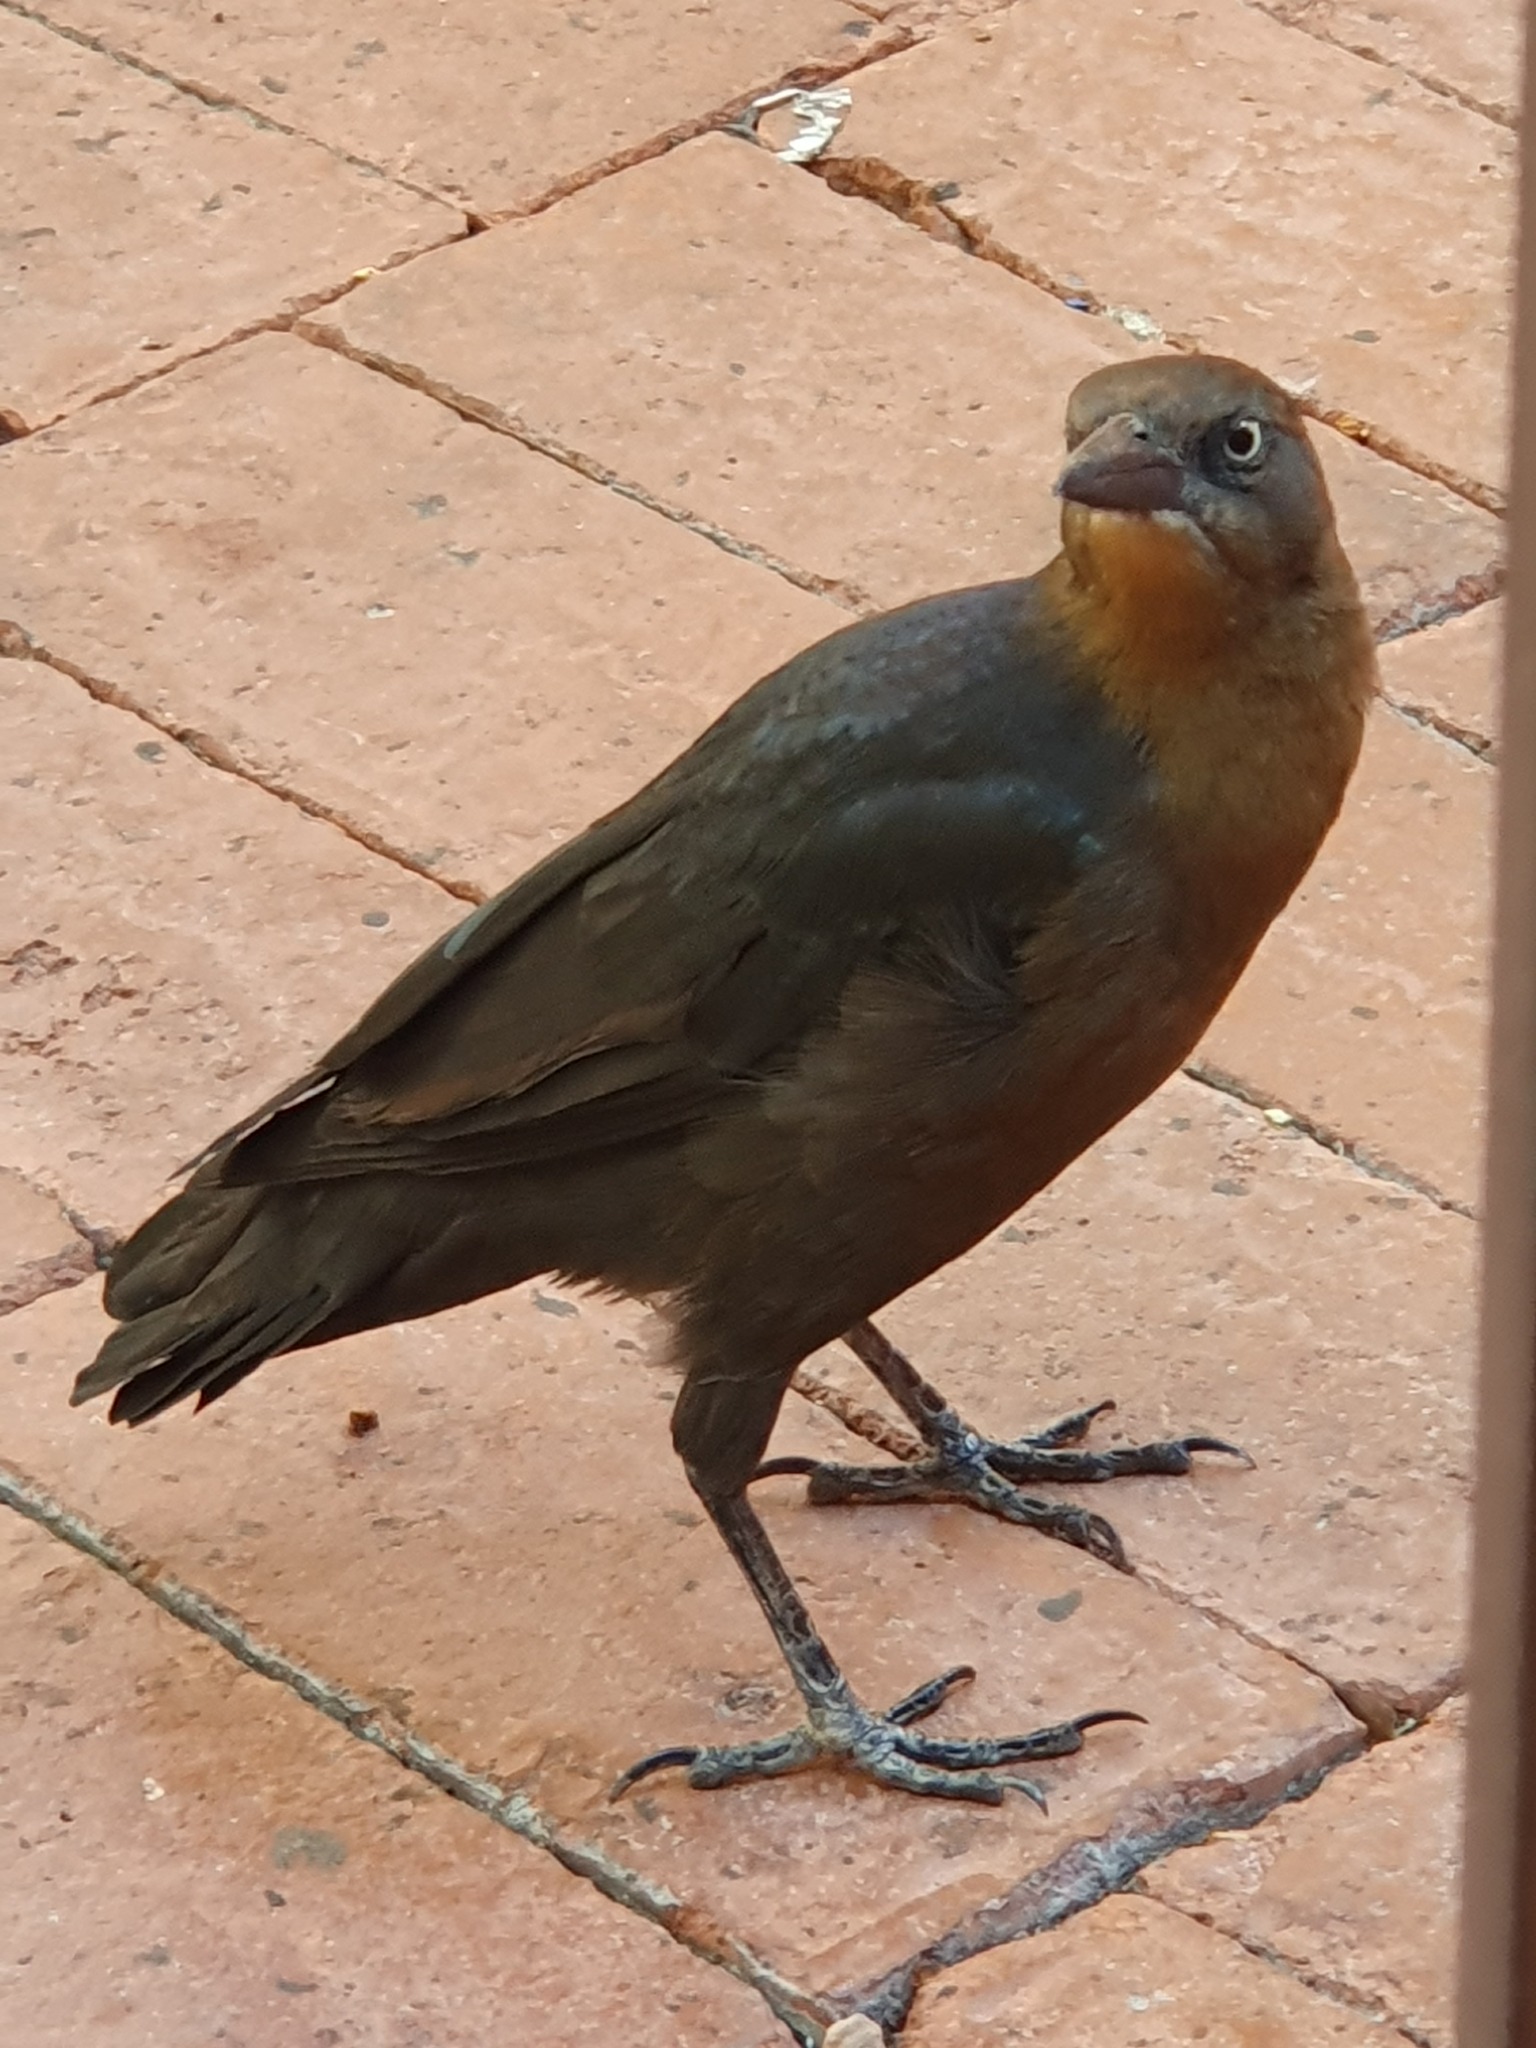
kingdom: Animalia
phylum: Chordata
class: Aves
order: Passeriformes
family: Icteridae
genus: Quiscalus
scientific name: Quiscalus mexicanus
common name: Great-tailed grackle
